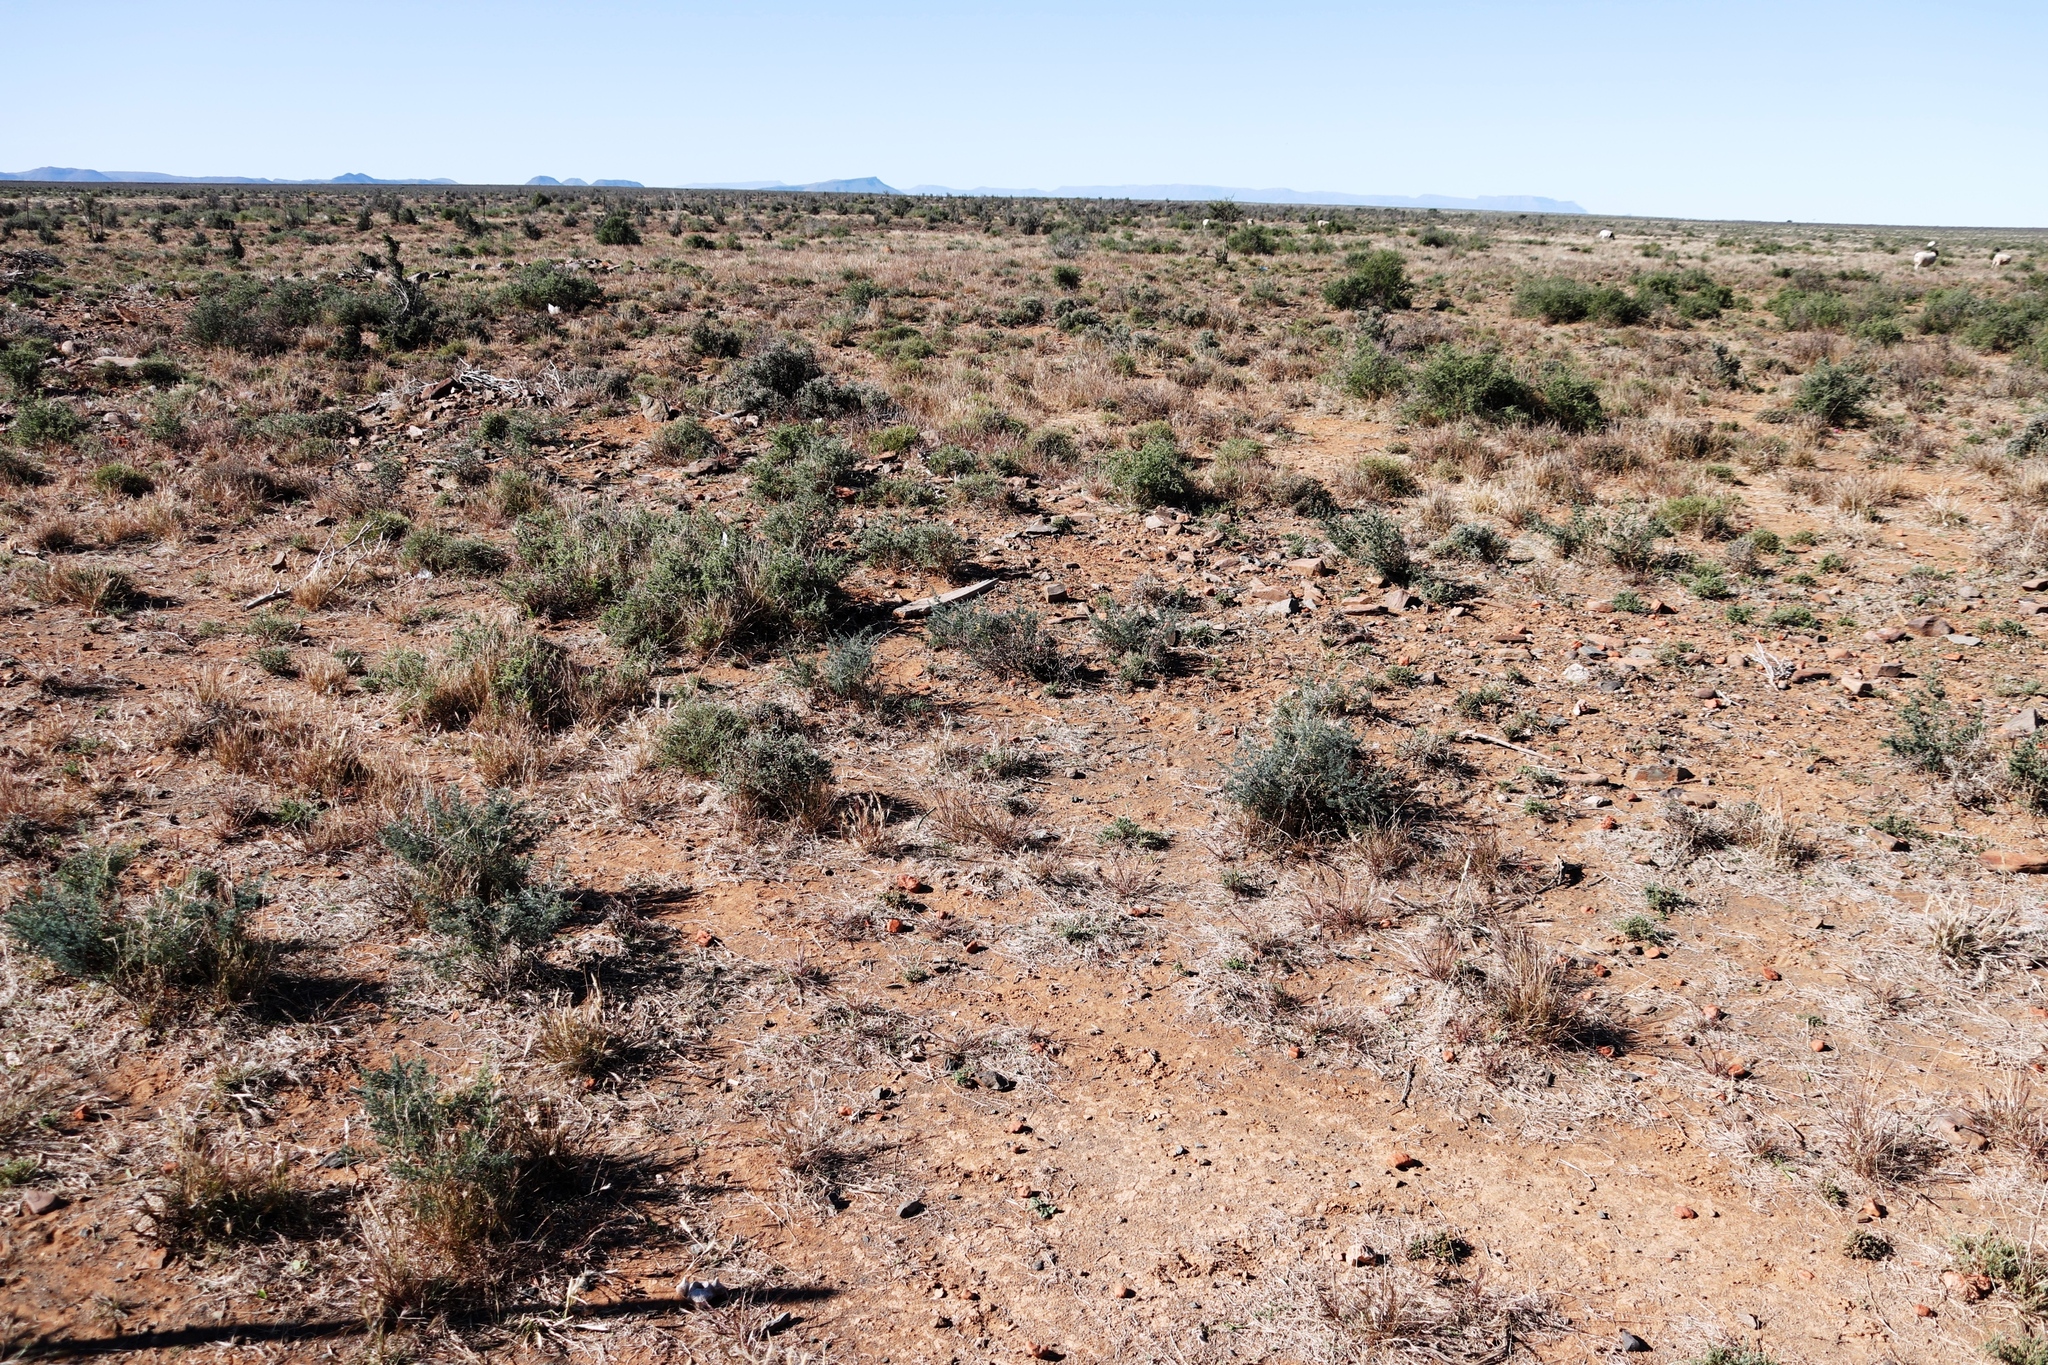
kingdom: Plantae
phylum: Tracheophyta
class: Liliopsida
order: Asparagales
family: Asparagaceae
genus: Asparagus
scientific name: Asparagus glaucus
